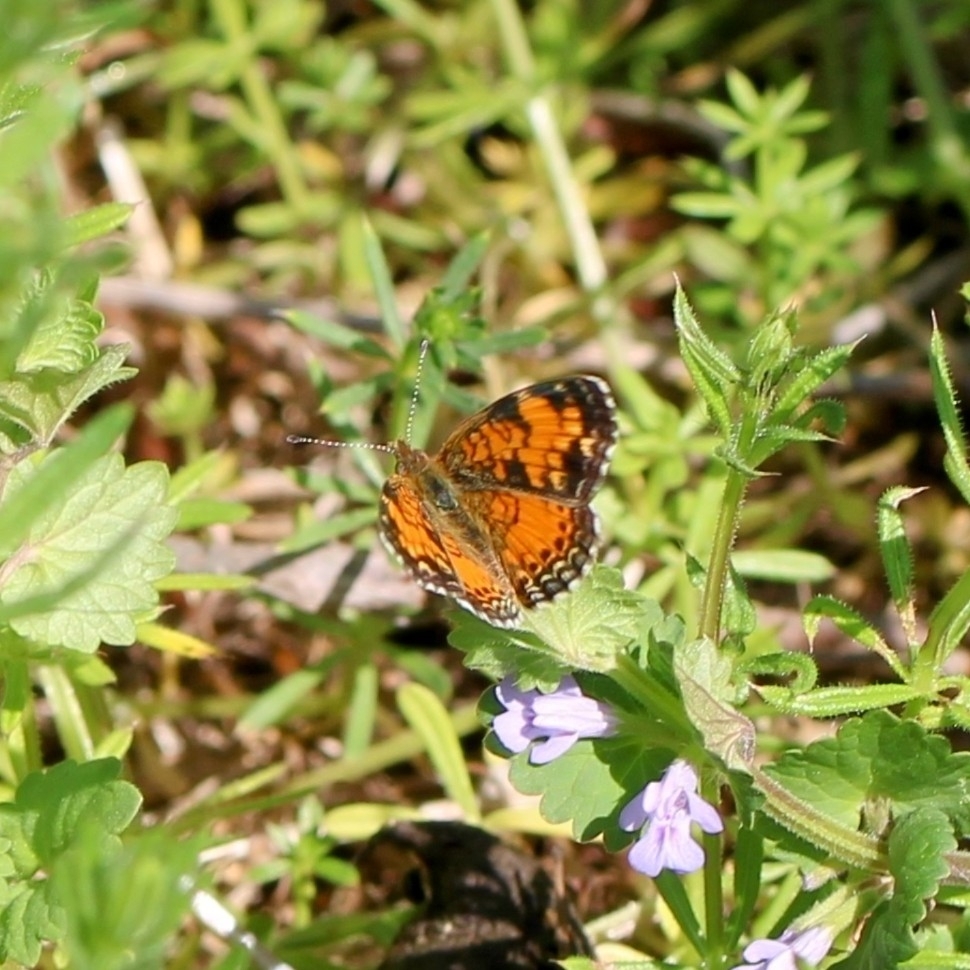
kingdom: Animalia
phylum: Arthropoda
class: Insecta
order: Lepidoptera
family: Nymphalidae
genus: Phyciodes
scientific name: Phyciodes tharos
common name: Pearl crescent
